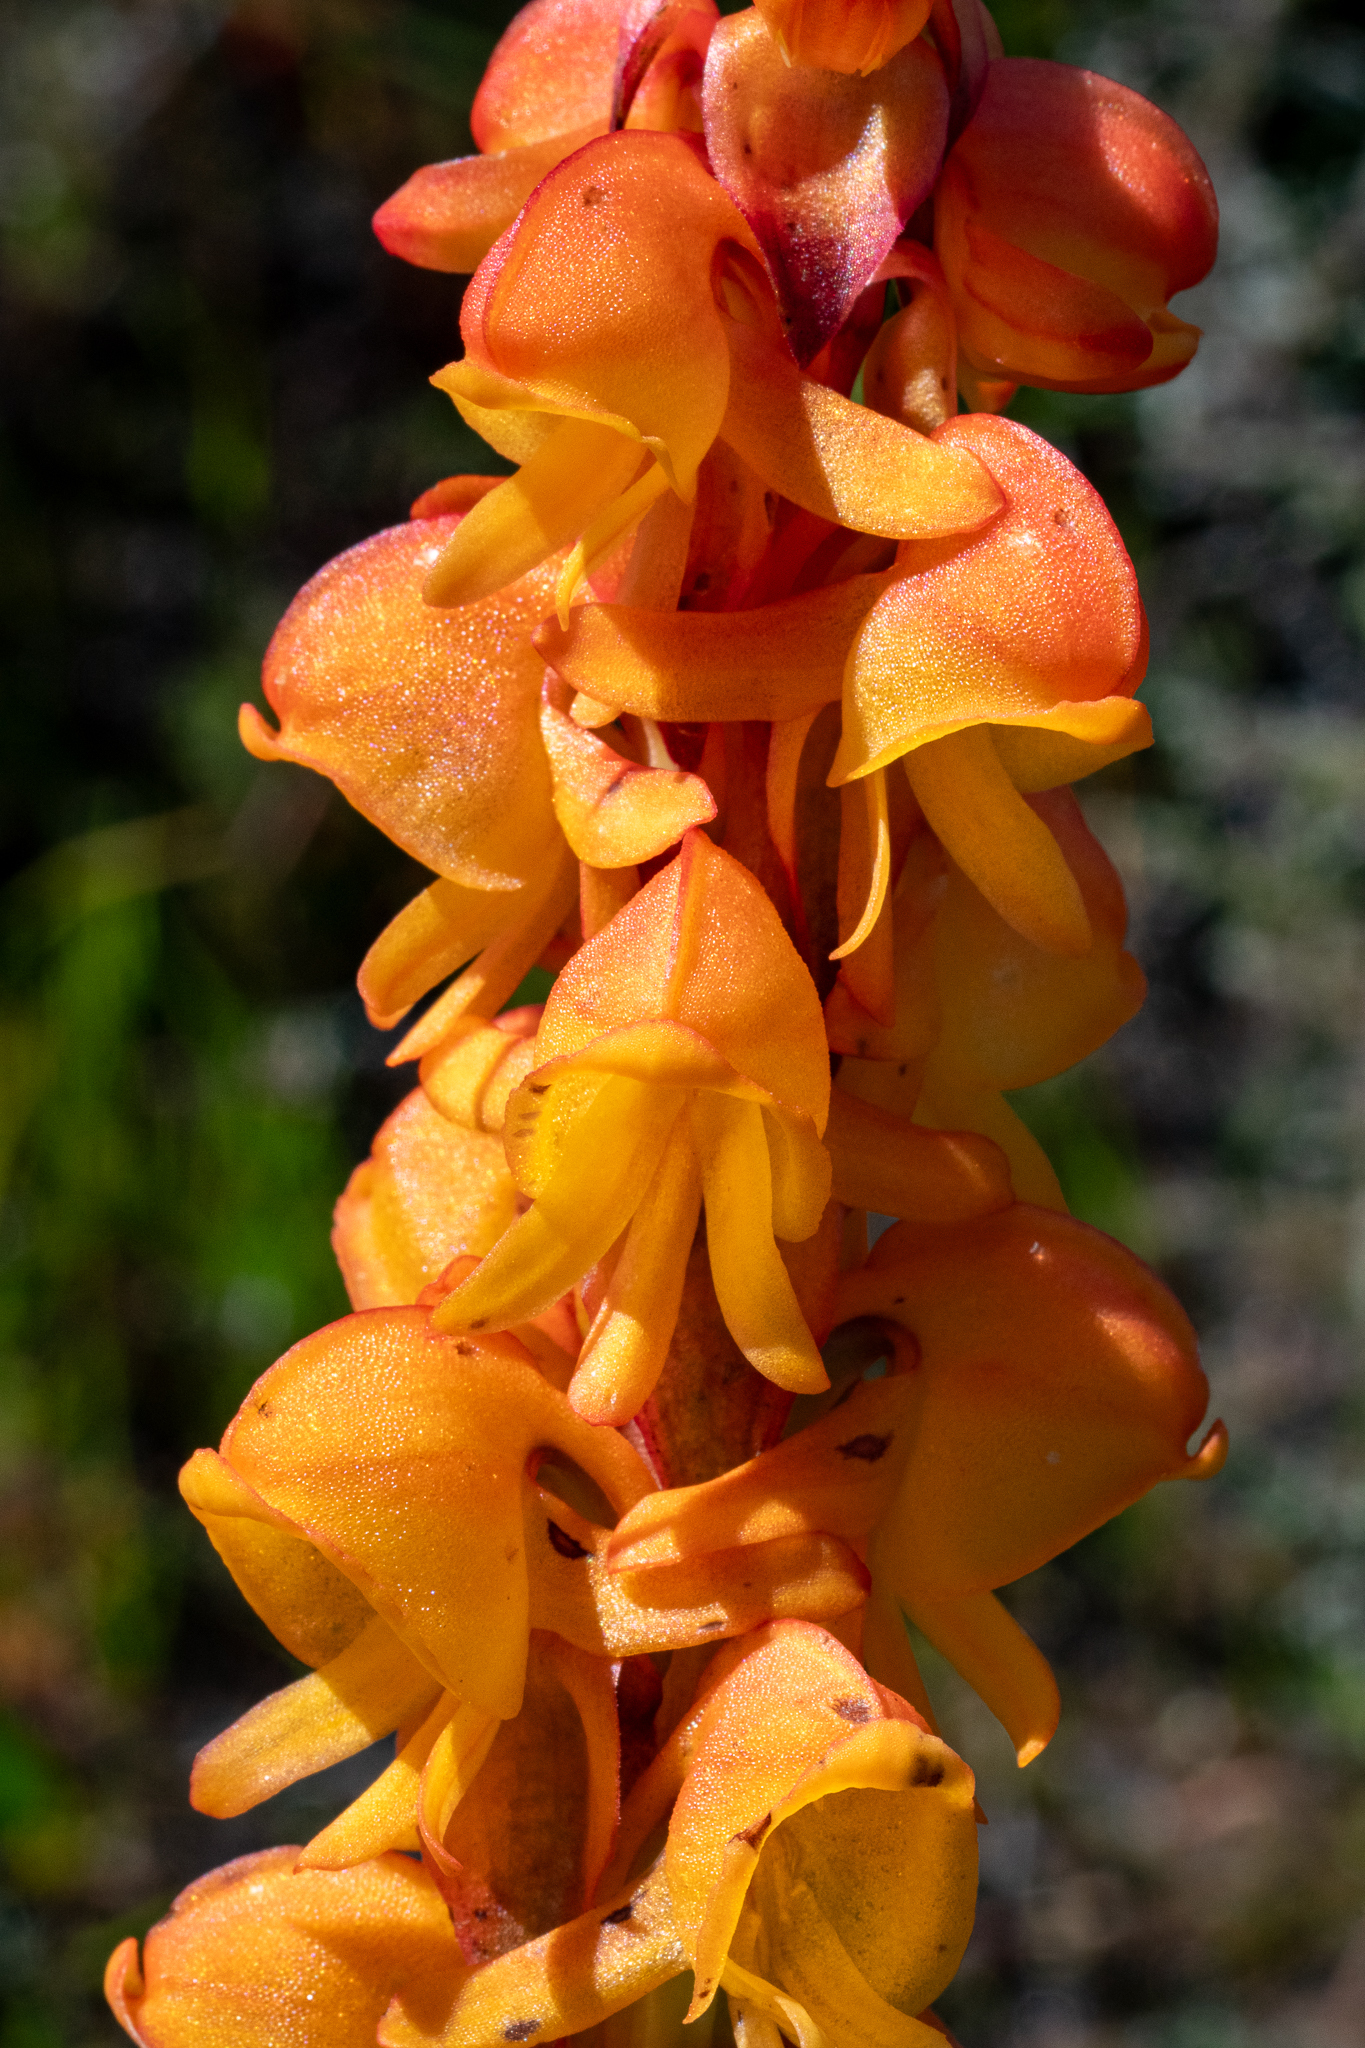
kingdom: Plantae
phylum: Tracheophyta
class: Liliopsida
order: Asparagales
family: Orchidaceae
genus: Satyrium
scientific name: Satyrium coriifolium
